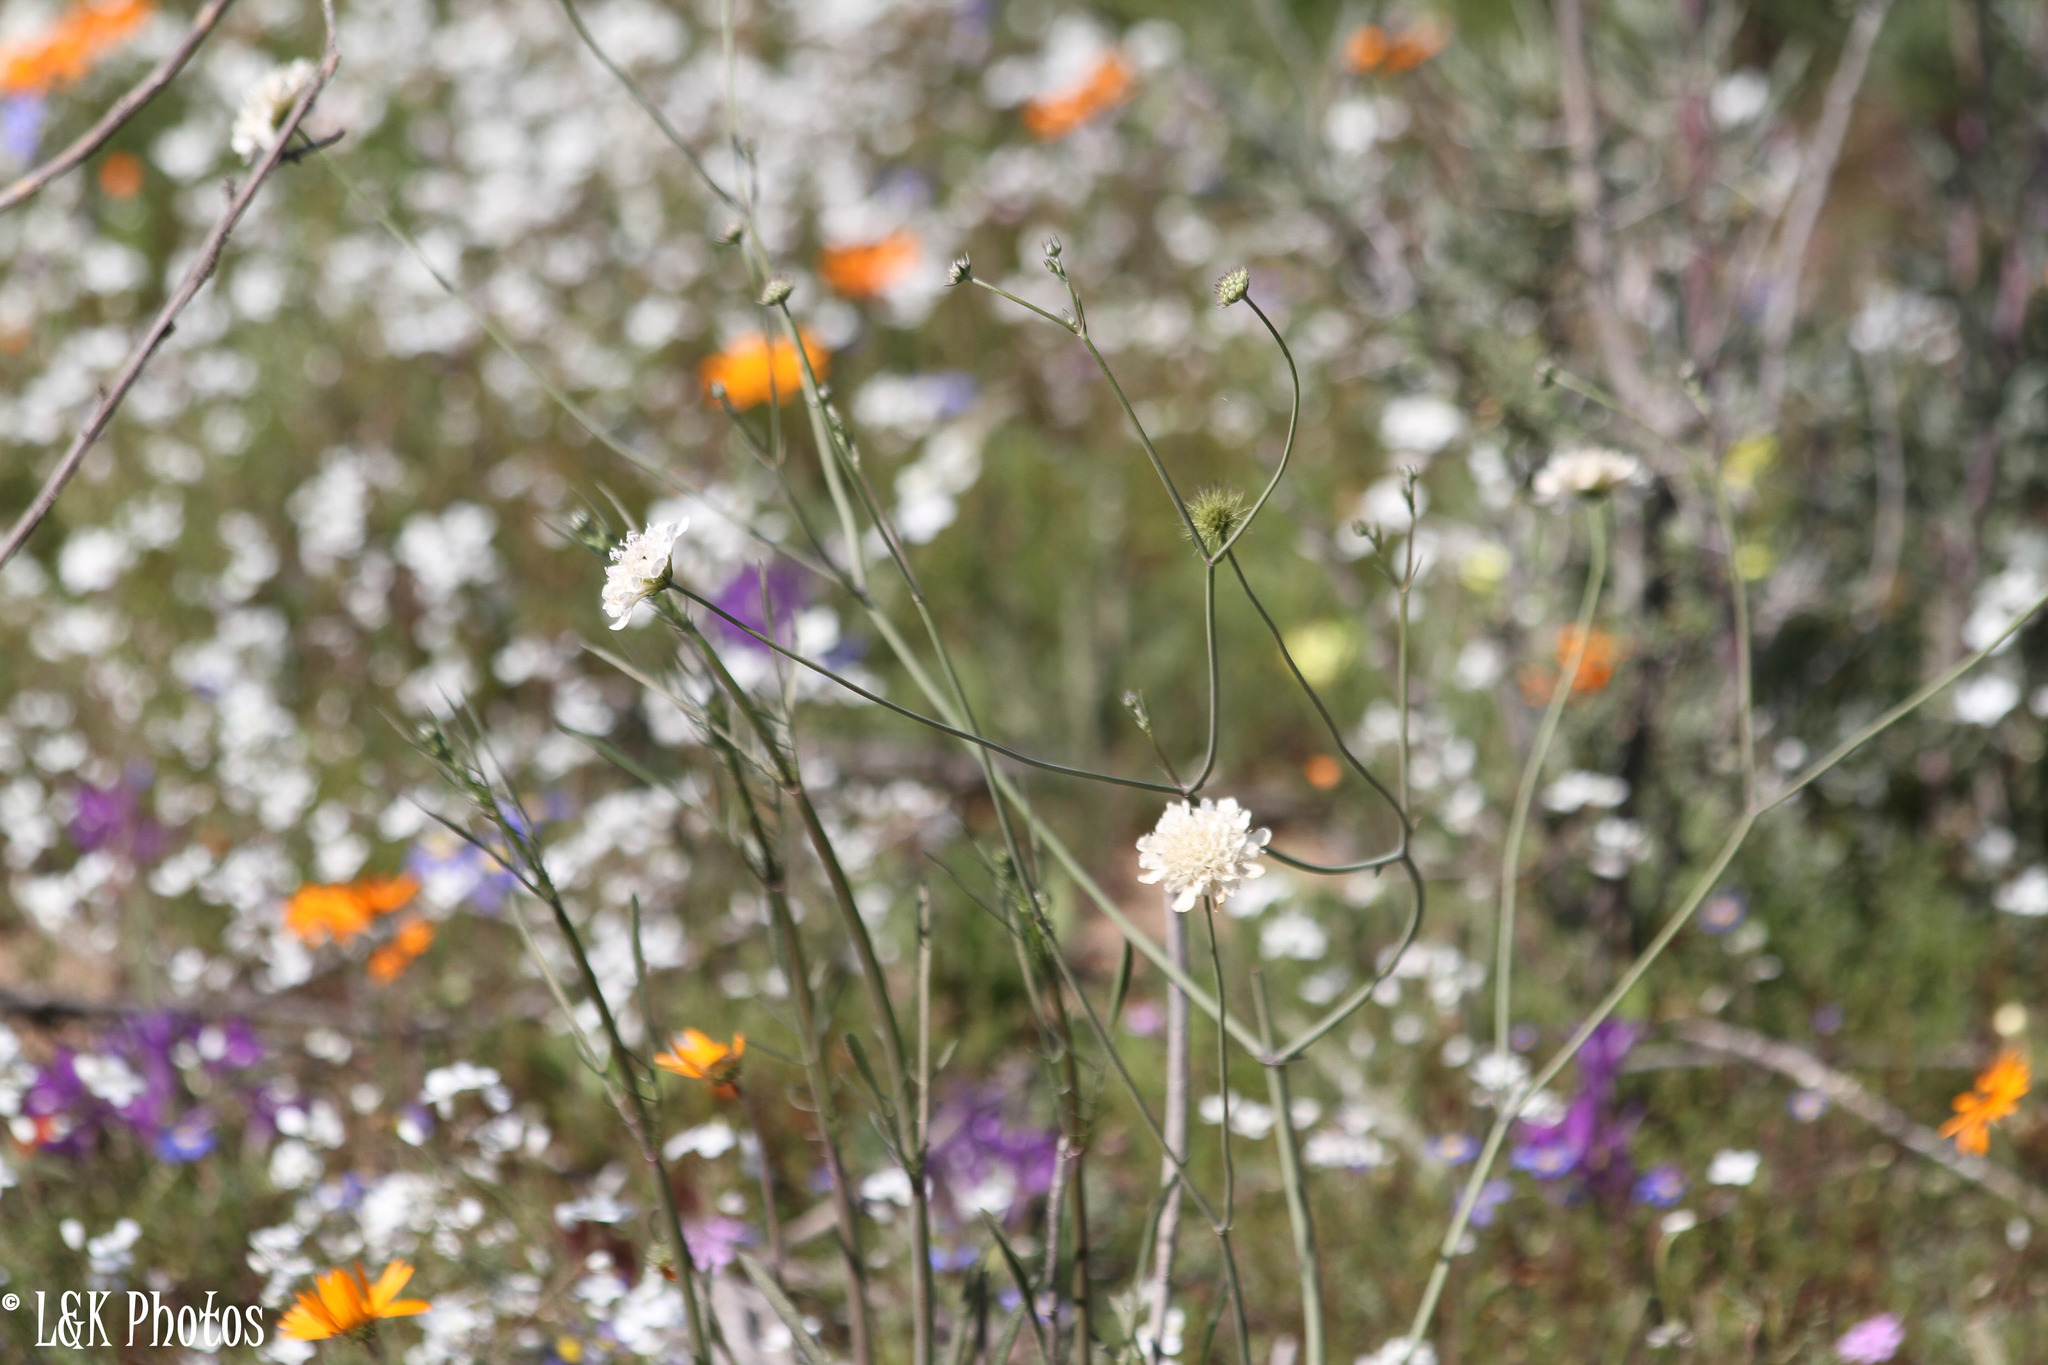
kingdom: Plantae
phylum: Tracheophyta
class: Magnoliopsida
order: Dipsacales
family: Caprifoliaceae
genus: Scabiosa
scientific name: Scabiosa columbaria
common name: Small scabious
